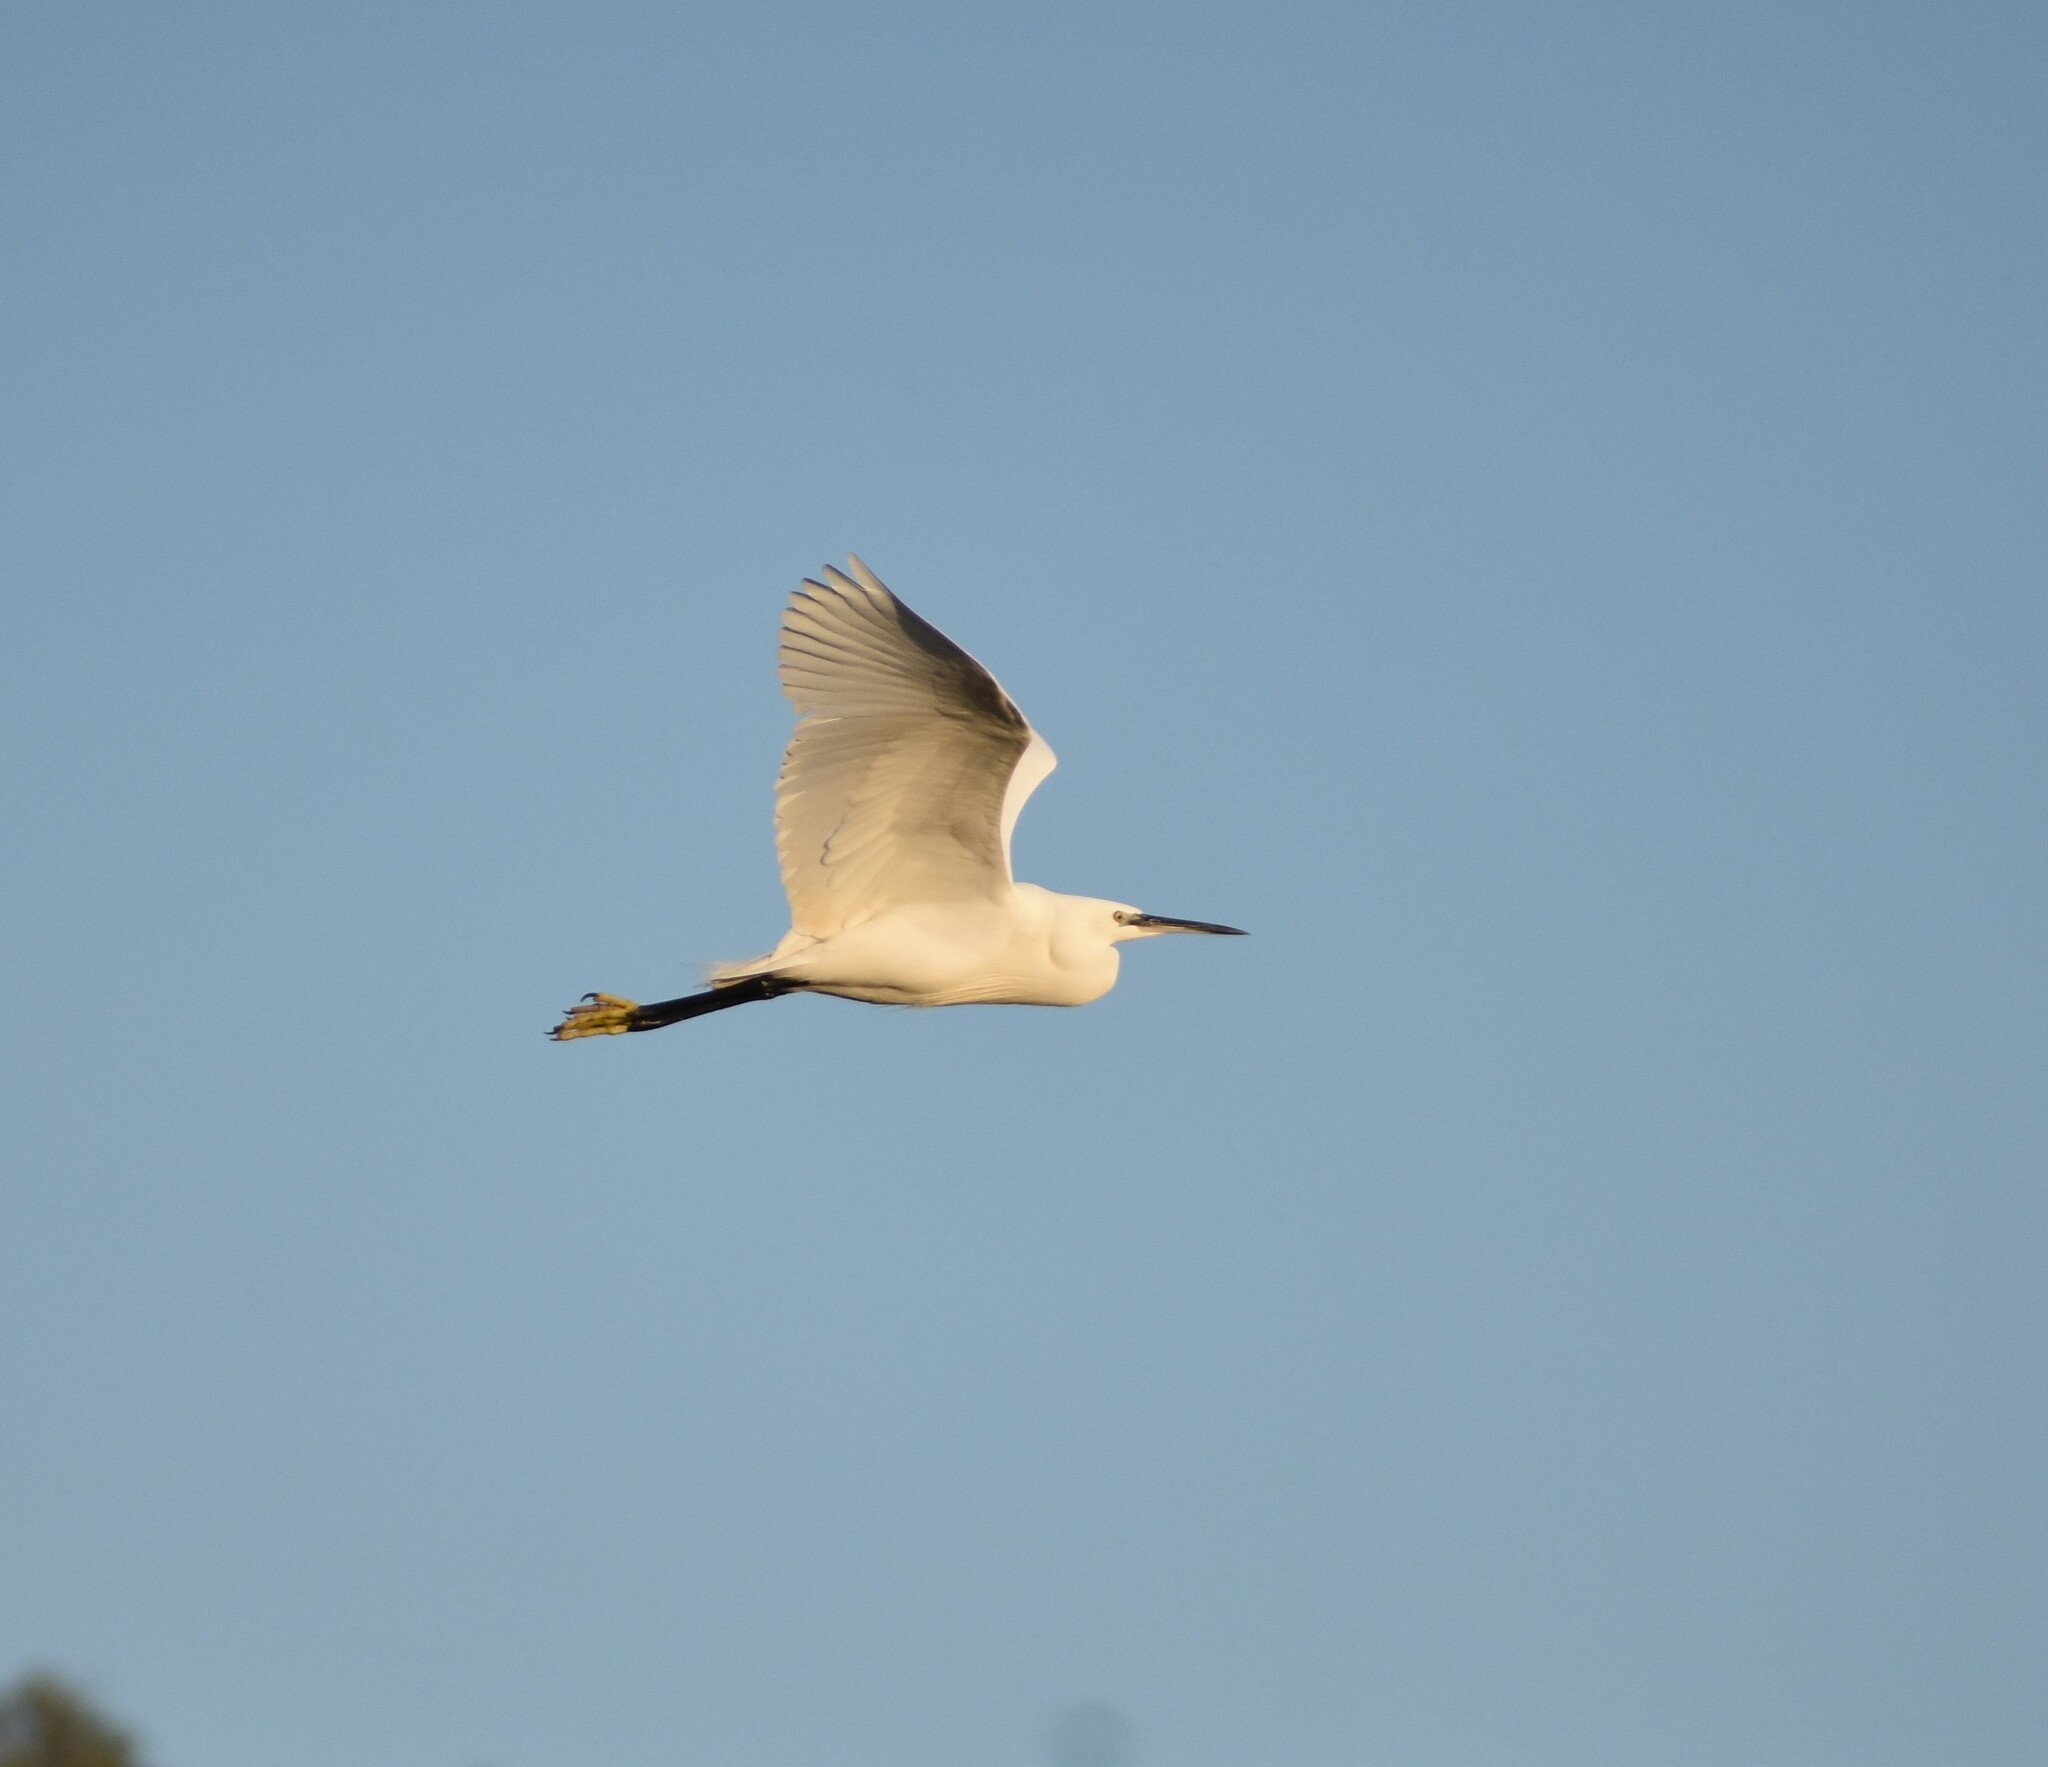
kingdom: Animalia
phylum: Chordata
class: Aves
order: Pelecaniformes
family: Ardeidae
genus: Egretta
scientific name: Egretta garzetta
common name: Little egret
